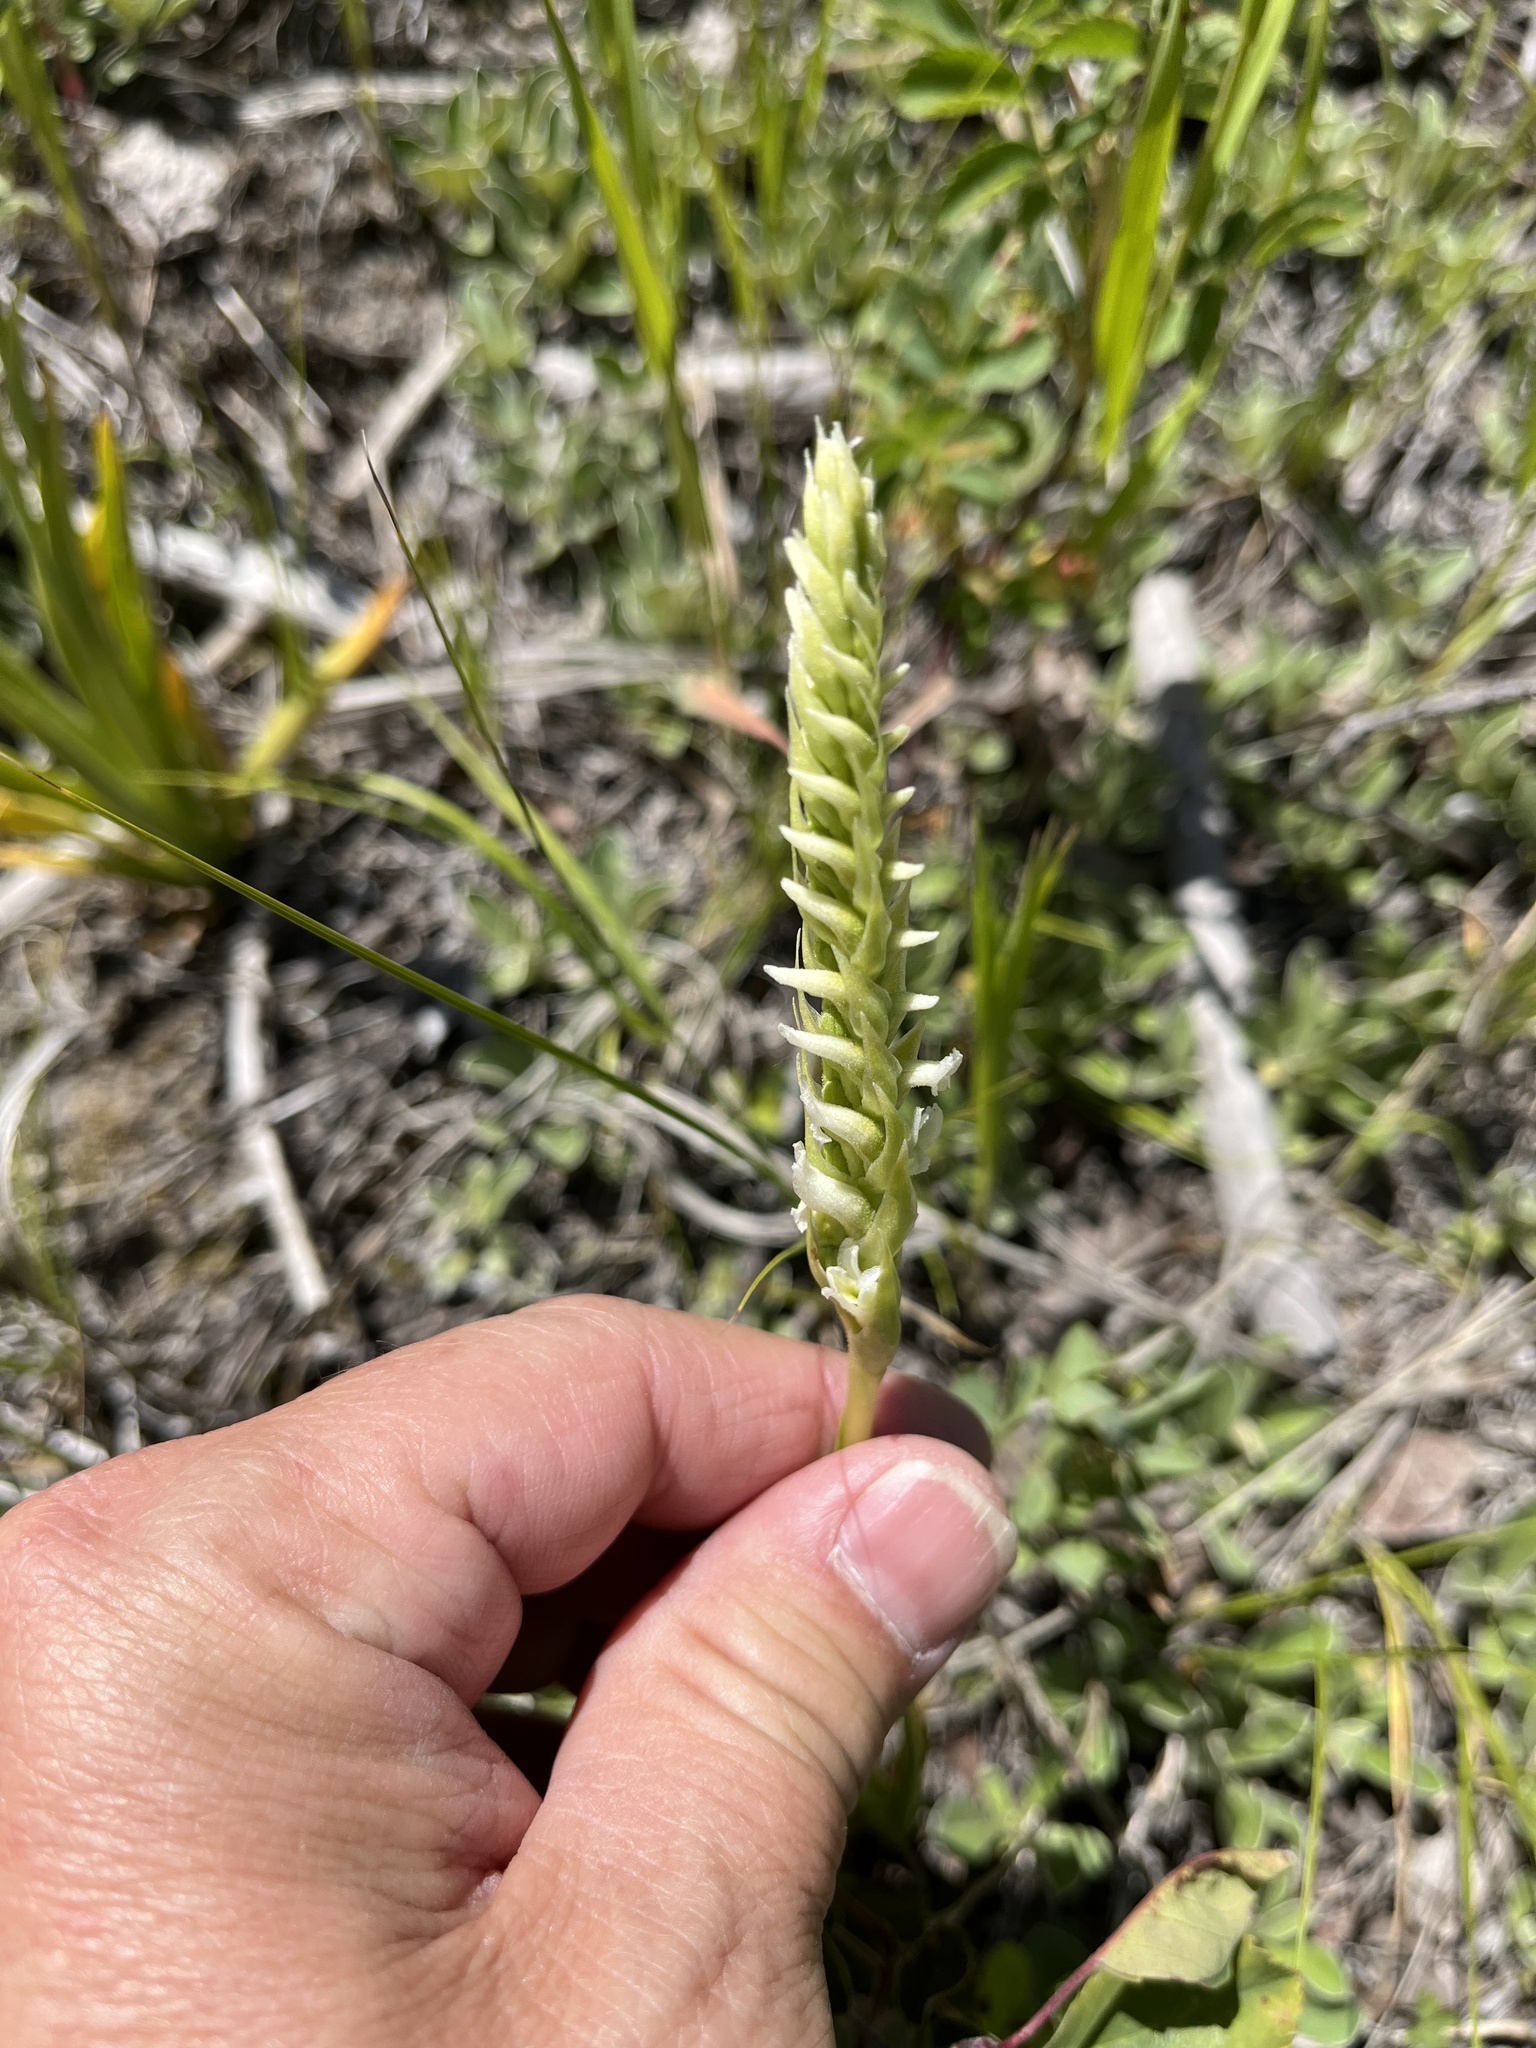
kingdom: Plantae
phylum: Tracheophyta
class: Liliopsida
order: Asparagales
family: Orchidaceae
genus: Spiranthes
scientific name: Spiranthes romanzoffiana
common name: Irish lady's-tresses
